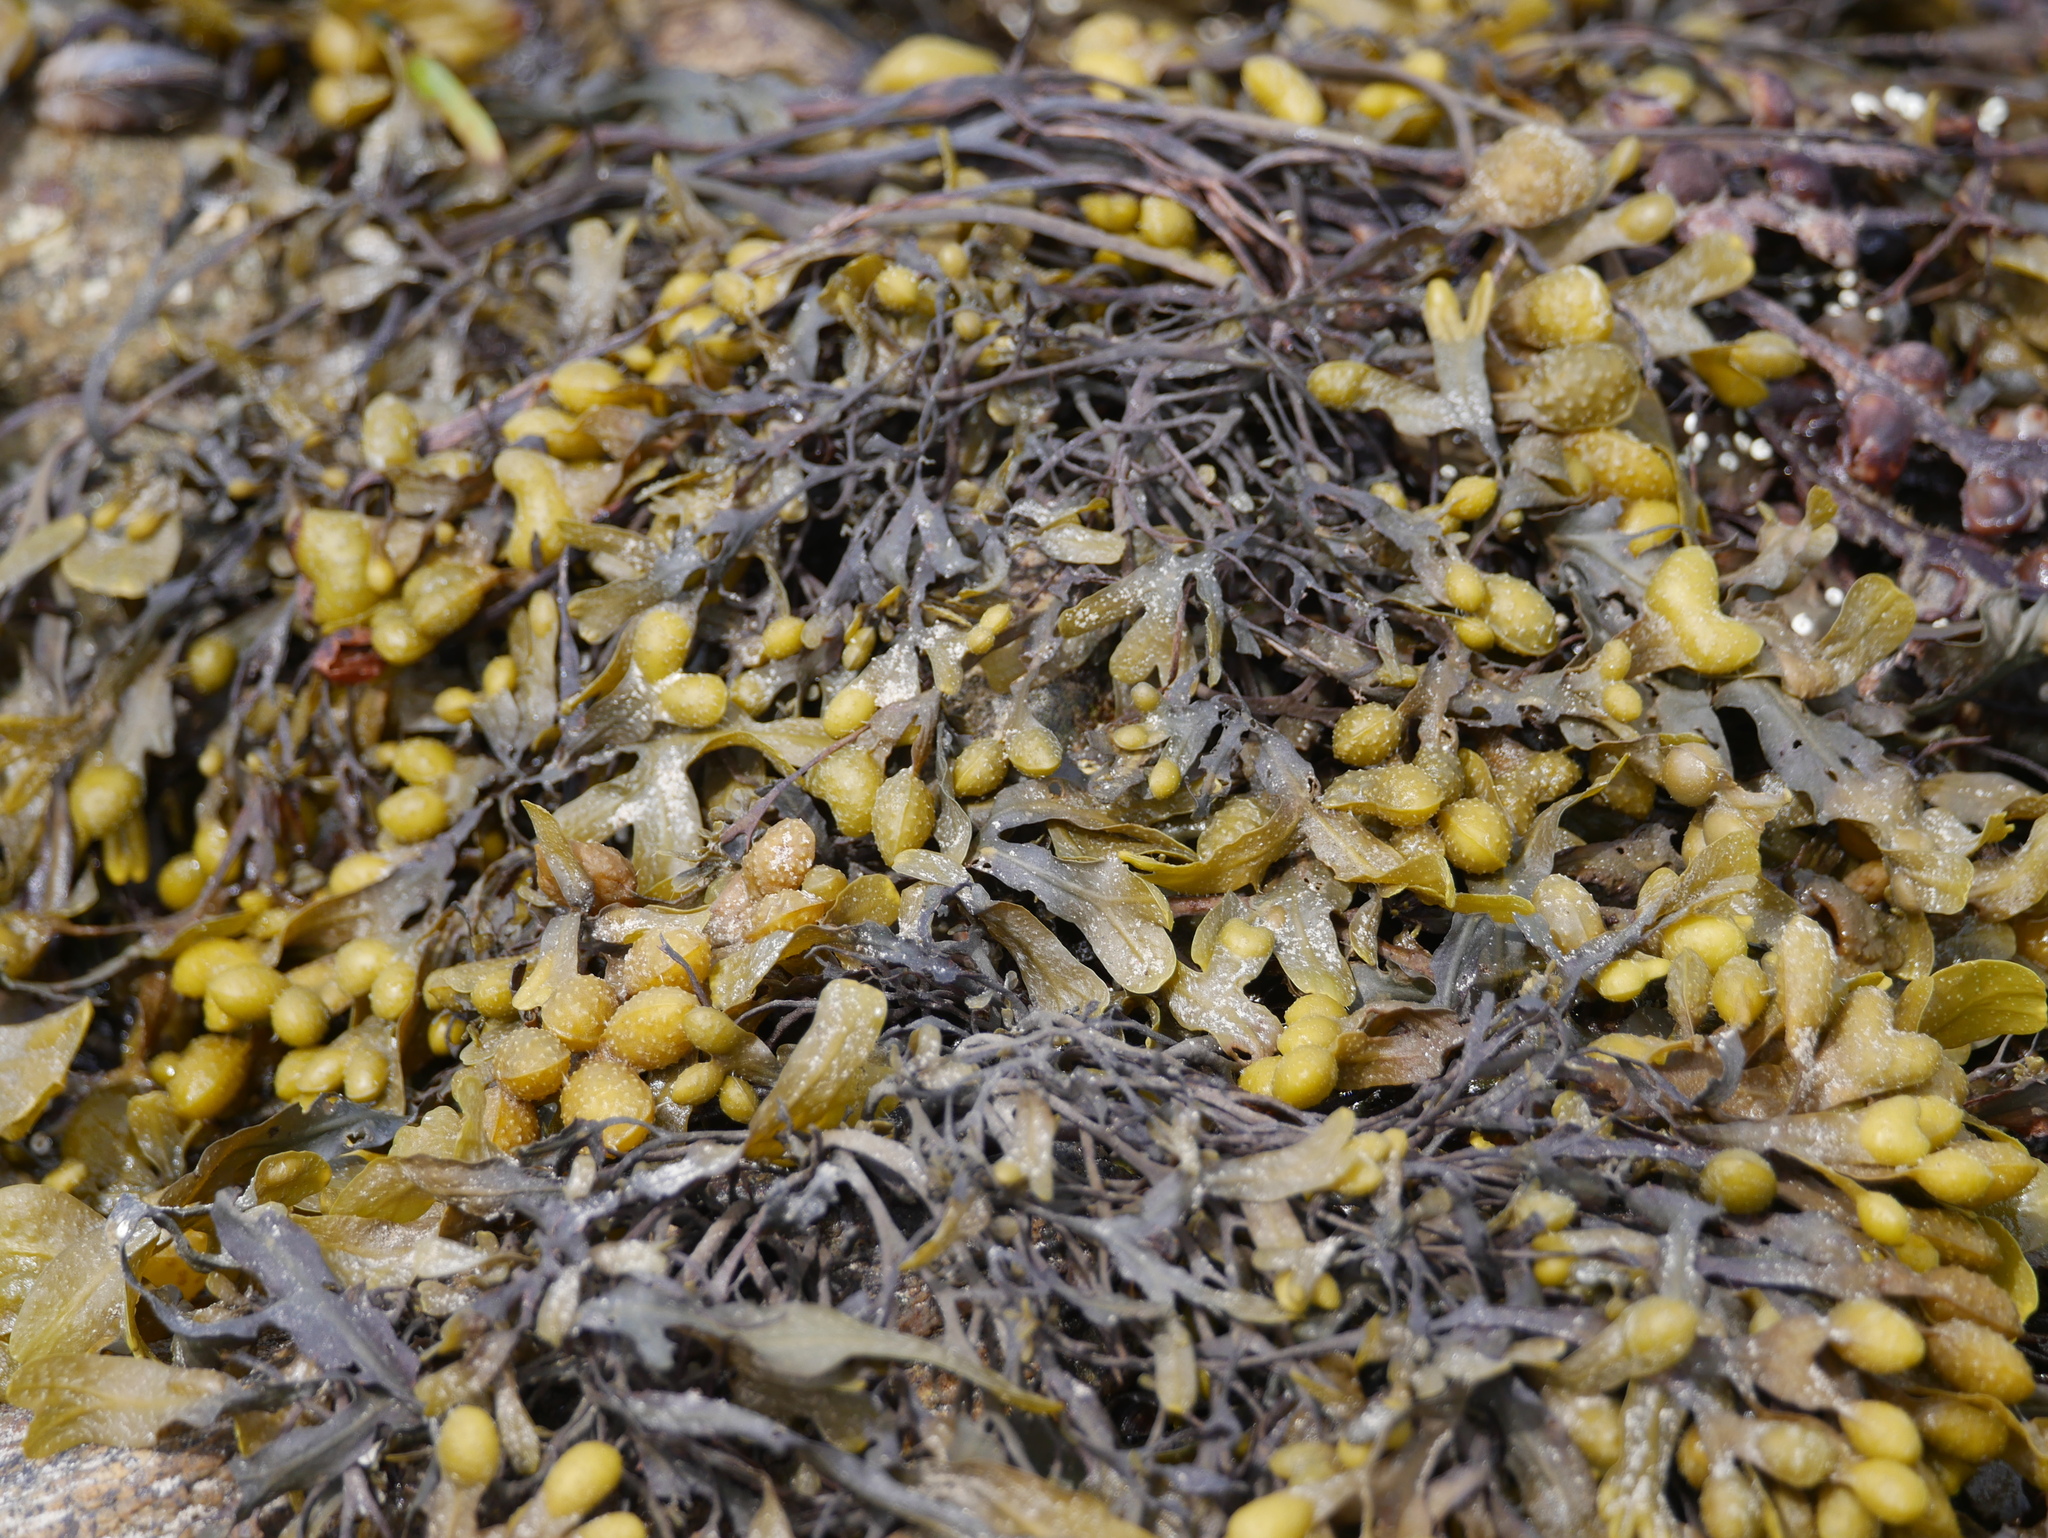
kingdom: Chromista
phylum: Ochrophyta
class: Phaeophyceae
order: Fucales
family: Fucaceae
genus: Fucus
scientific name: Fucus vesiculosus
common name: Bladder wrack
